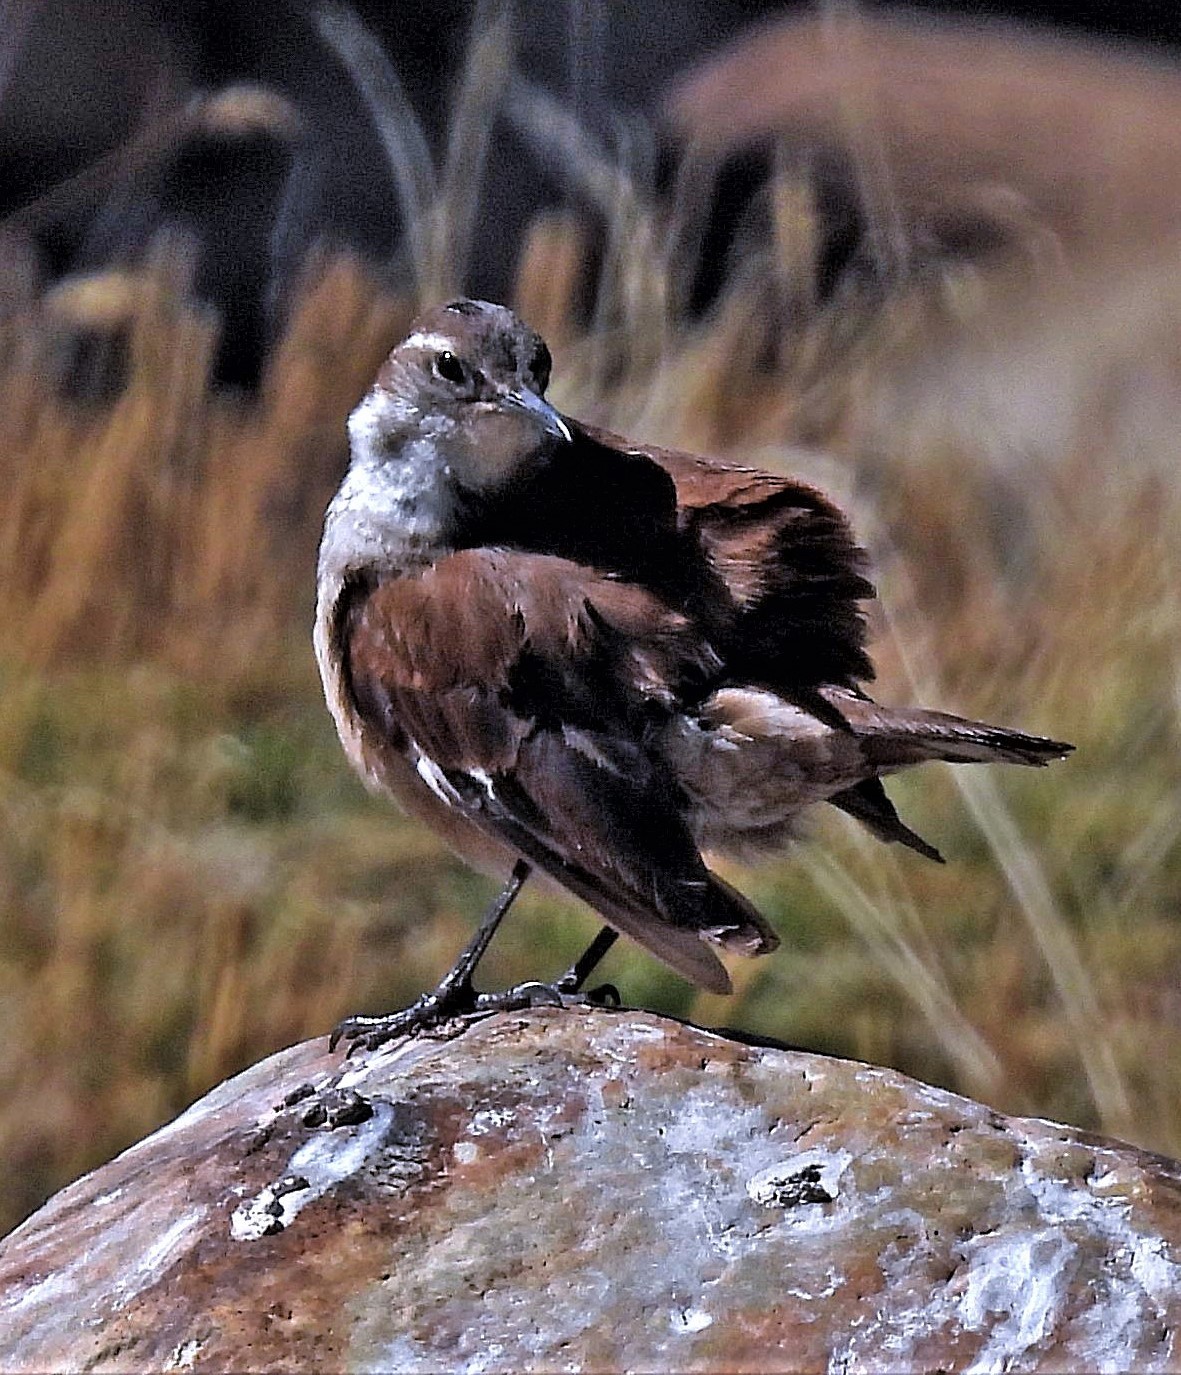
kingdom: Animalia
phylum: Chordata
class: Aves
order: Passeriformes
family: Furnariidae
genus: Cinclodes
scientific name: Cinclodes atacamensis
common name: White-winged cinclodes
